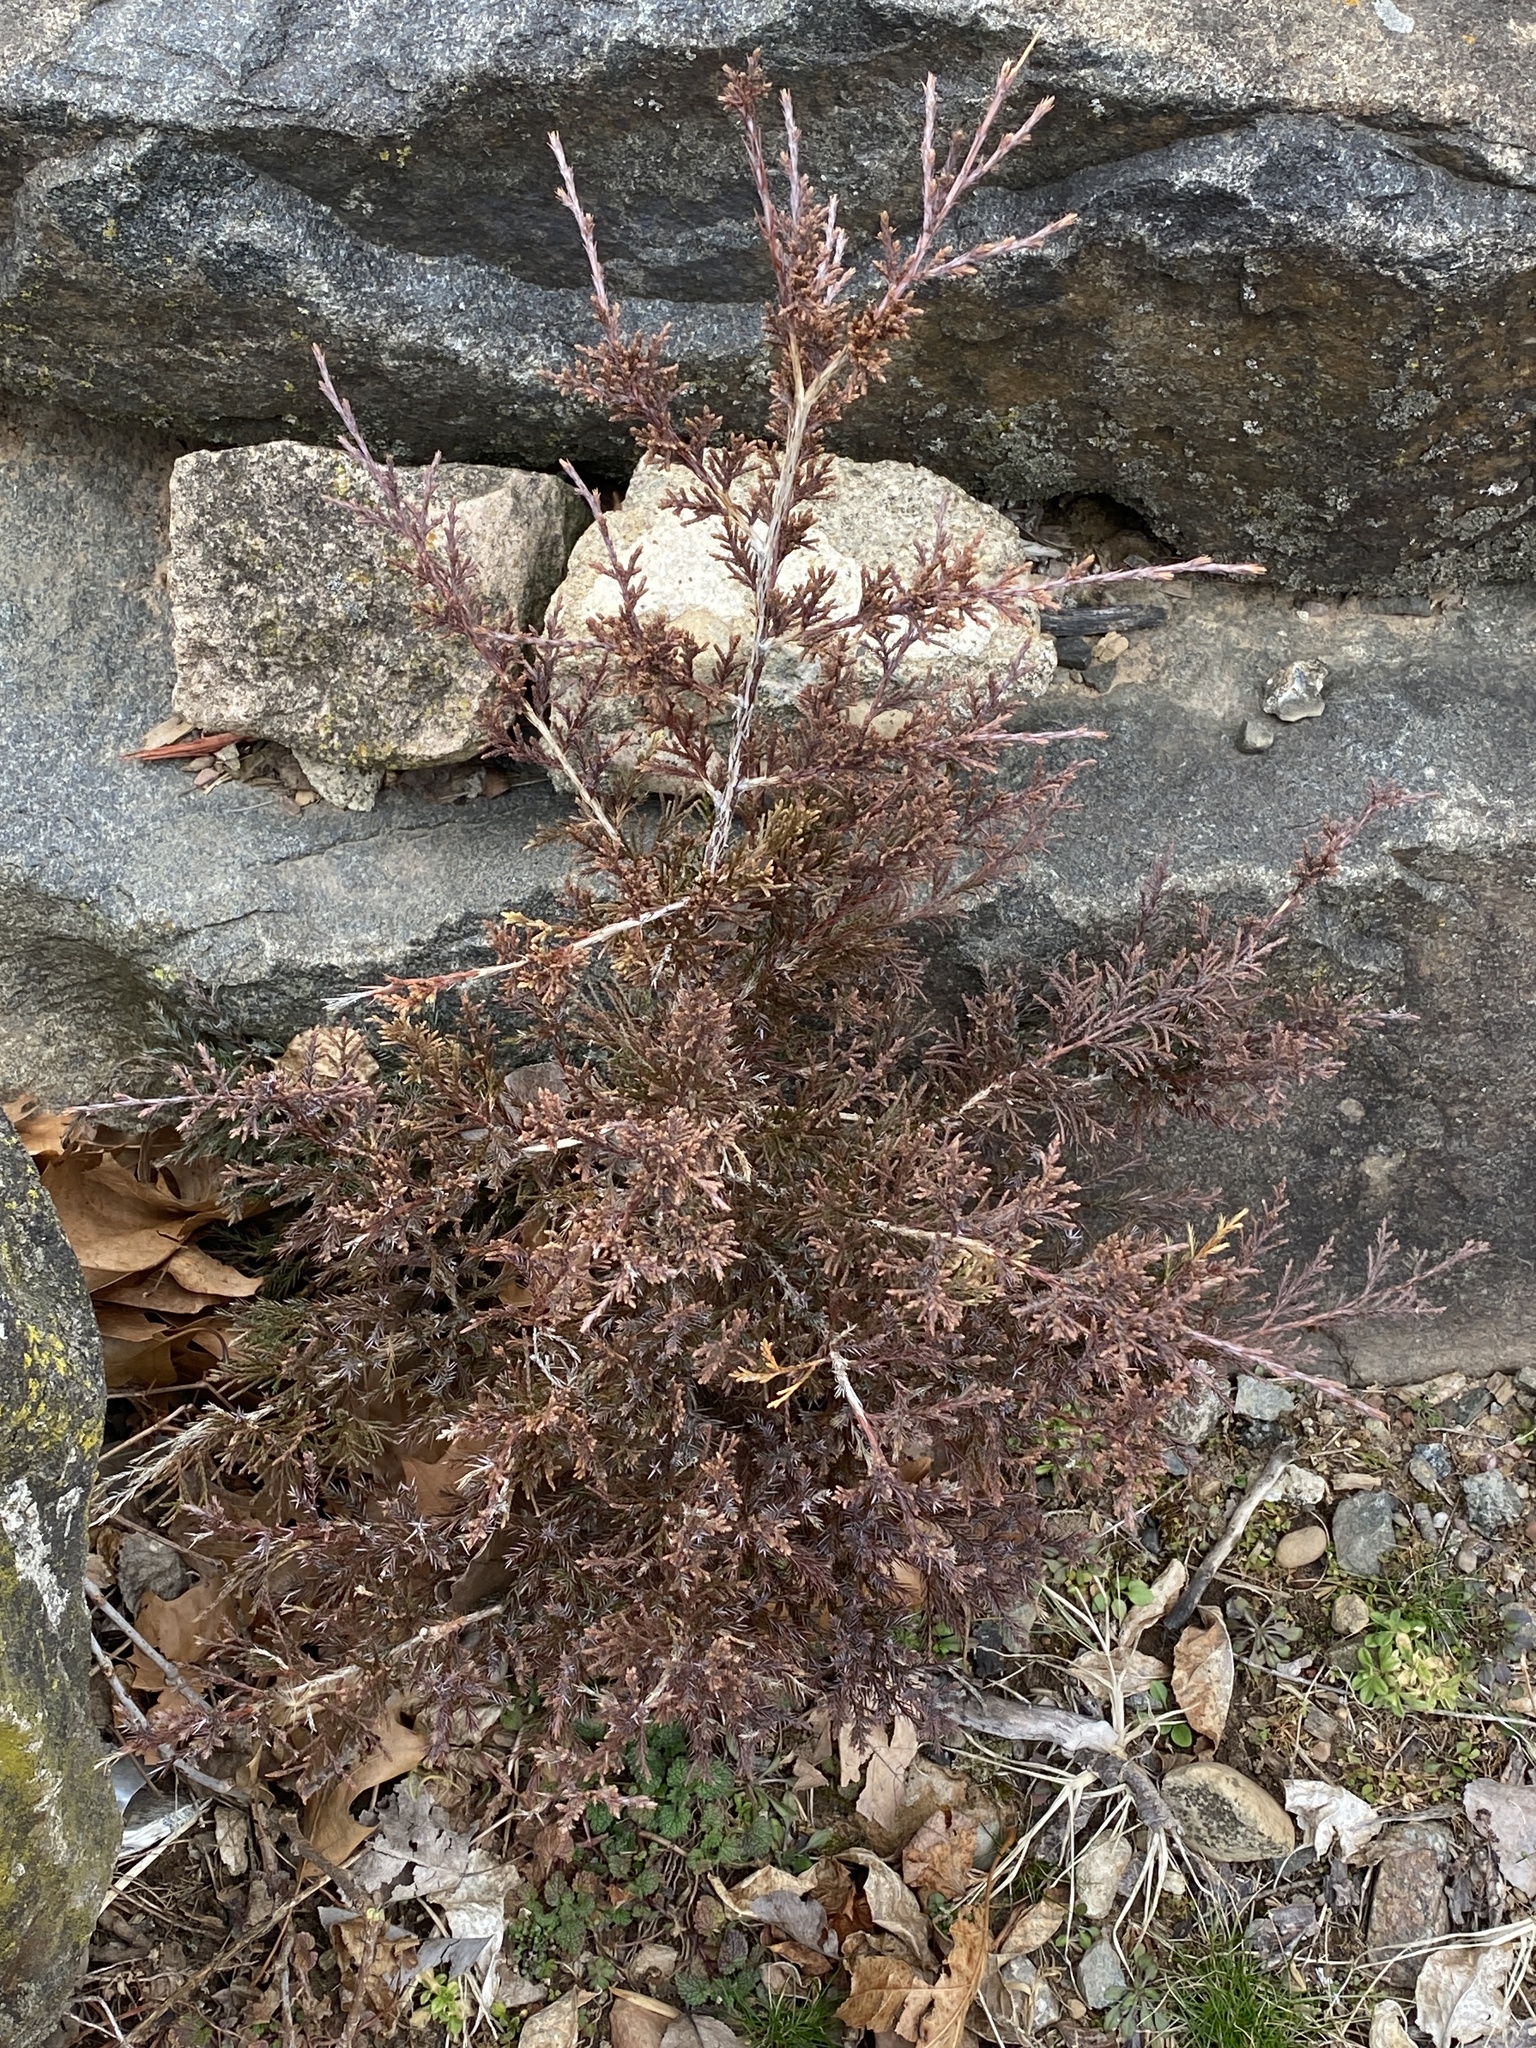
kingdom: Plantae
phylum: Tracheophyta
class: Pinopsida
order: Pinales
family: Cupressaceae
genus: Juniperus
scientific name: Juniperus virginiana
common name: Red juniper
